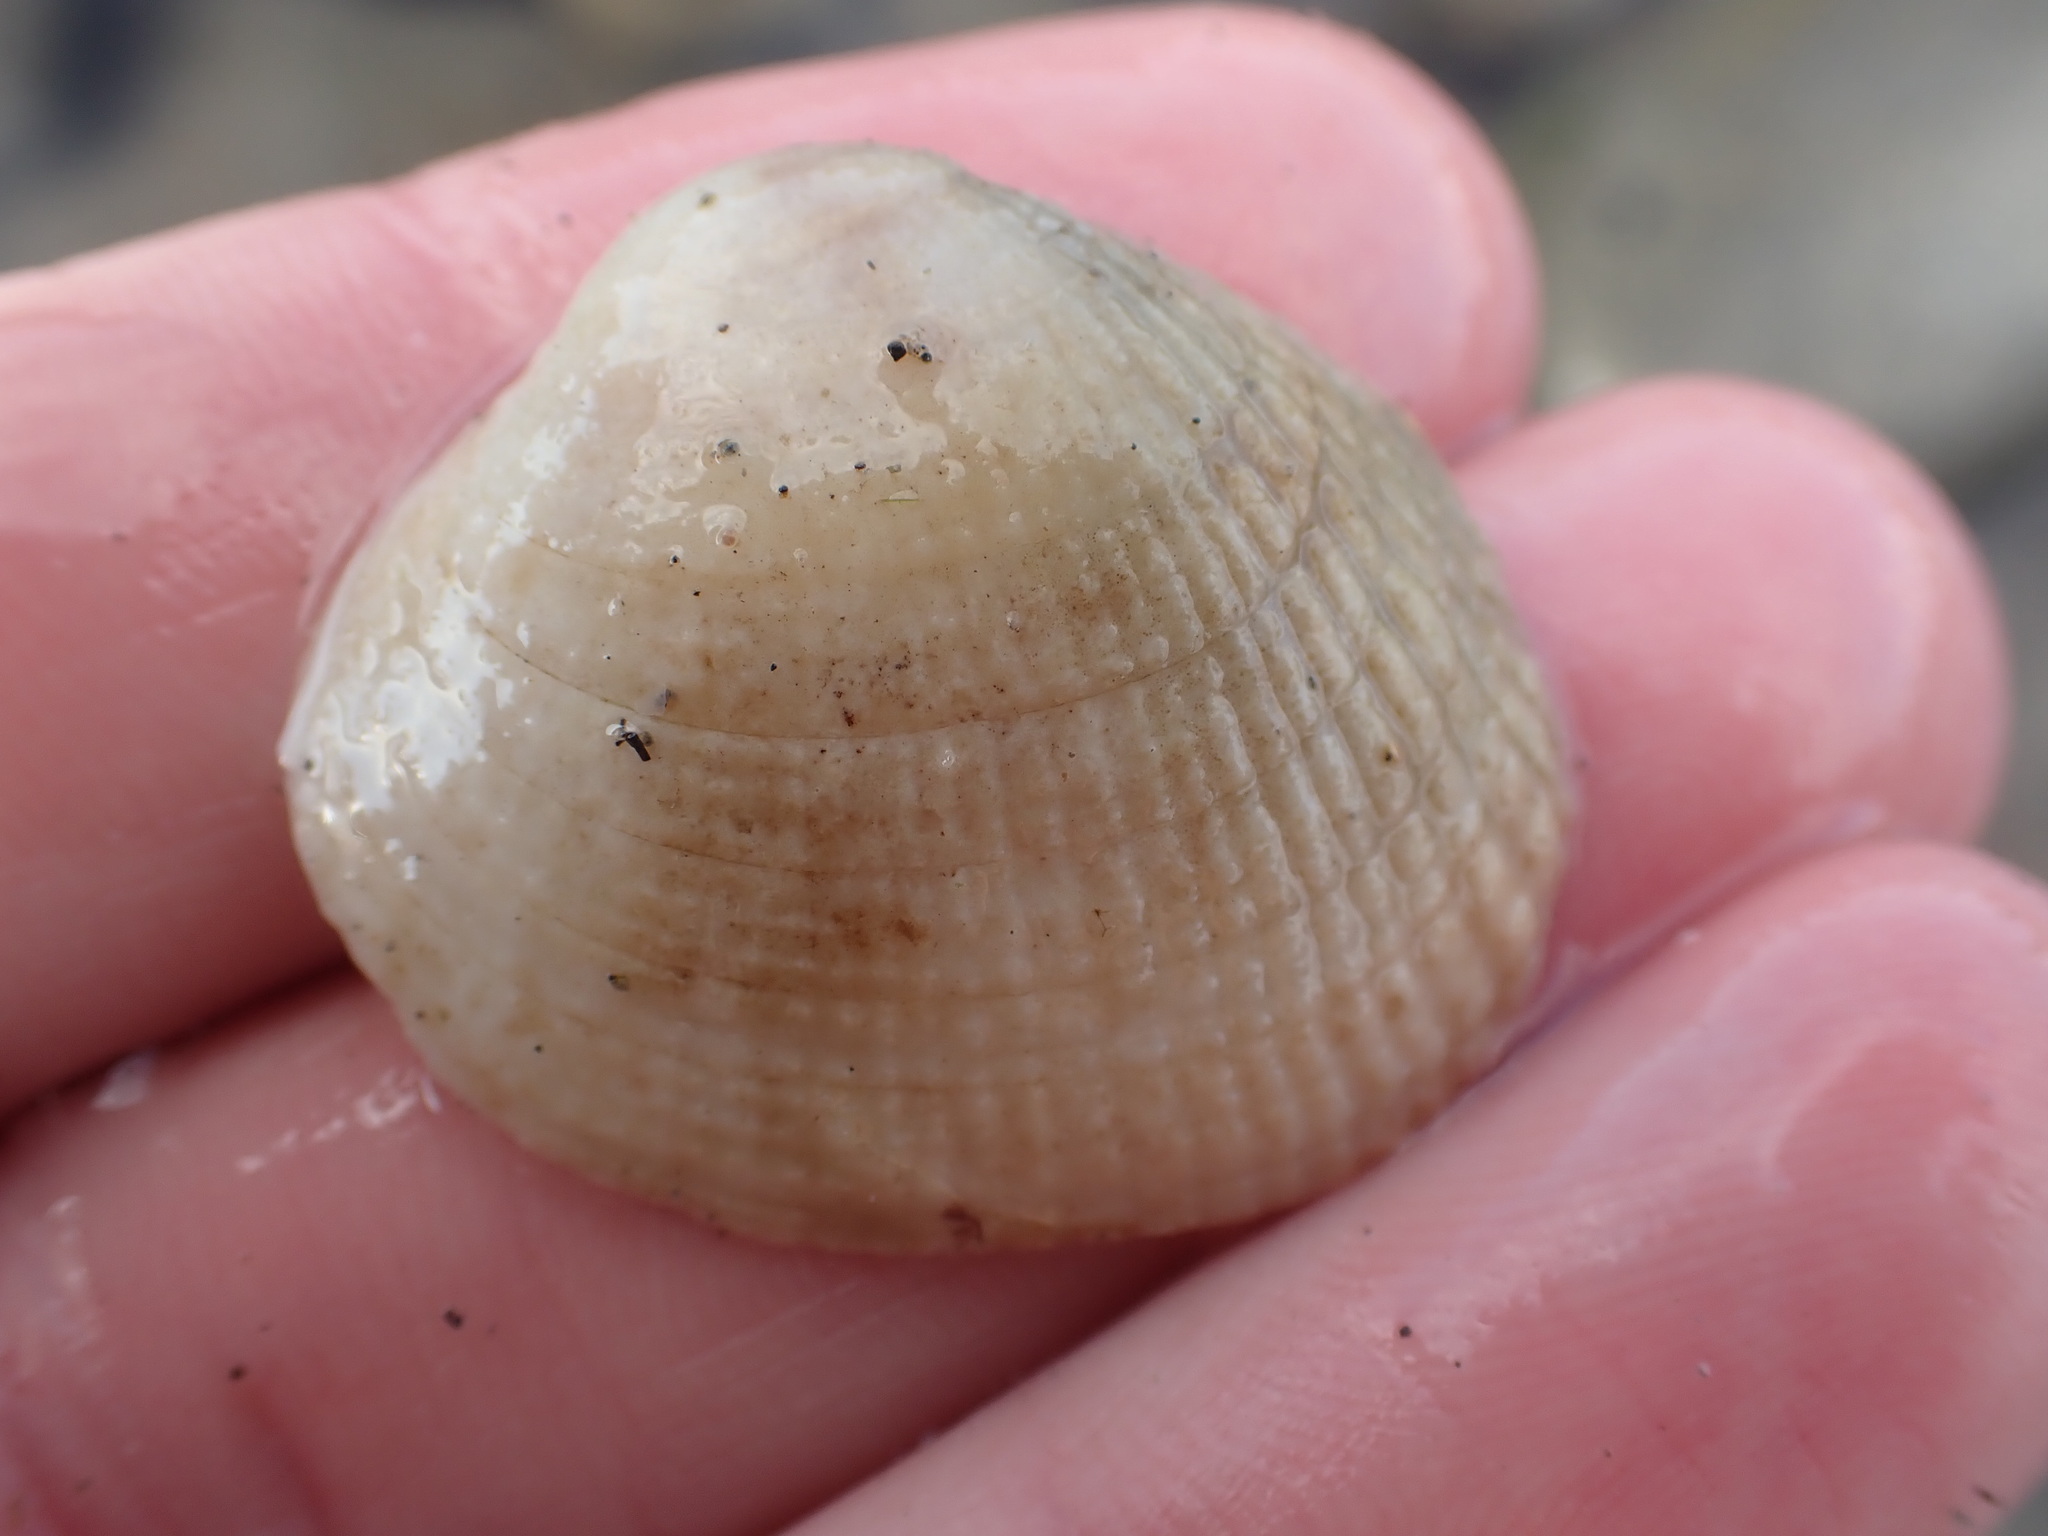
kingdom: Animalia
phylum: Mollusca
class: Bivalvia
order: Venerida
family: Veneridae
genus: Leukoma
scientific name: Leukoma crassicosta
